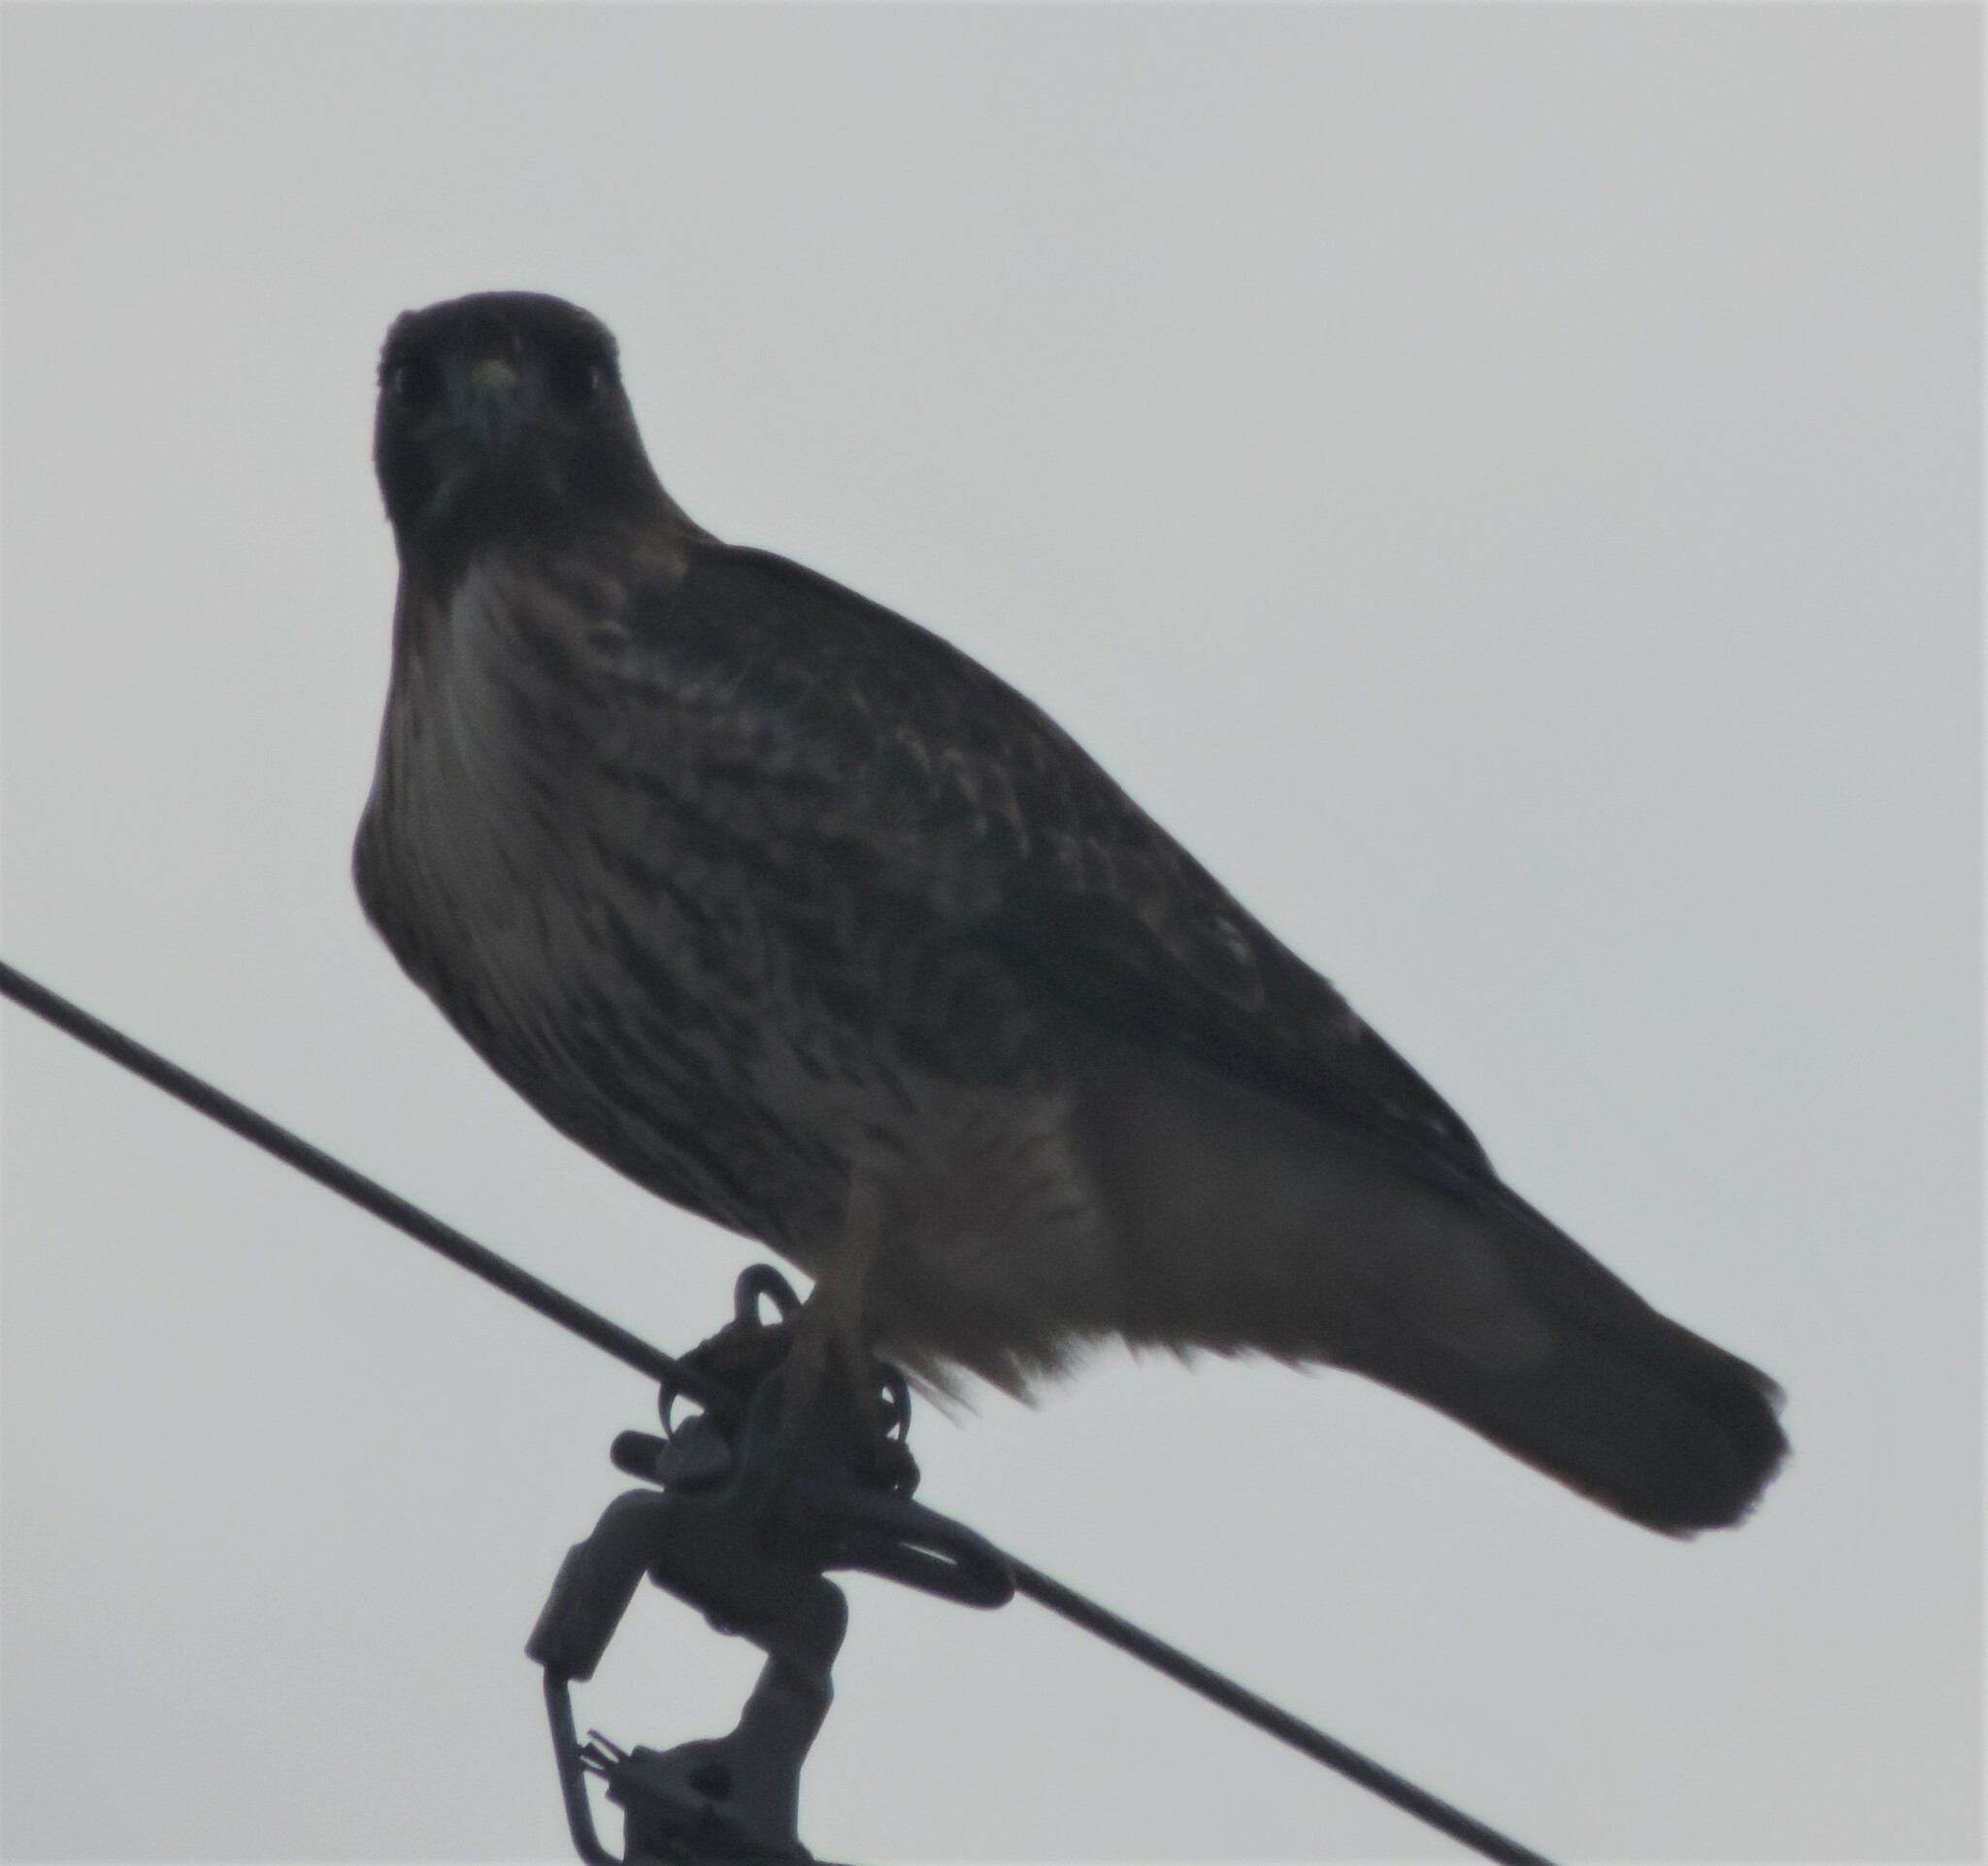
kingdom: Animalia
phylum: Chordata
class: Aves
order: Accipitriformes
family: Accipitridae
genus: Buteo
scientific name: Buteo jamaicensis
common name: Red-tailed hawk
